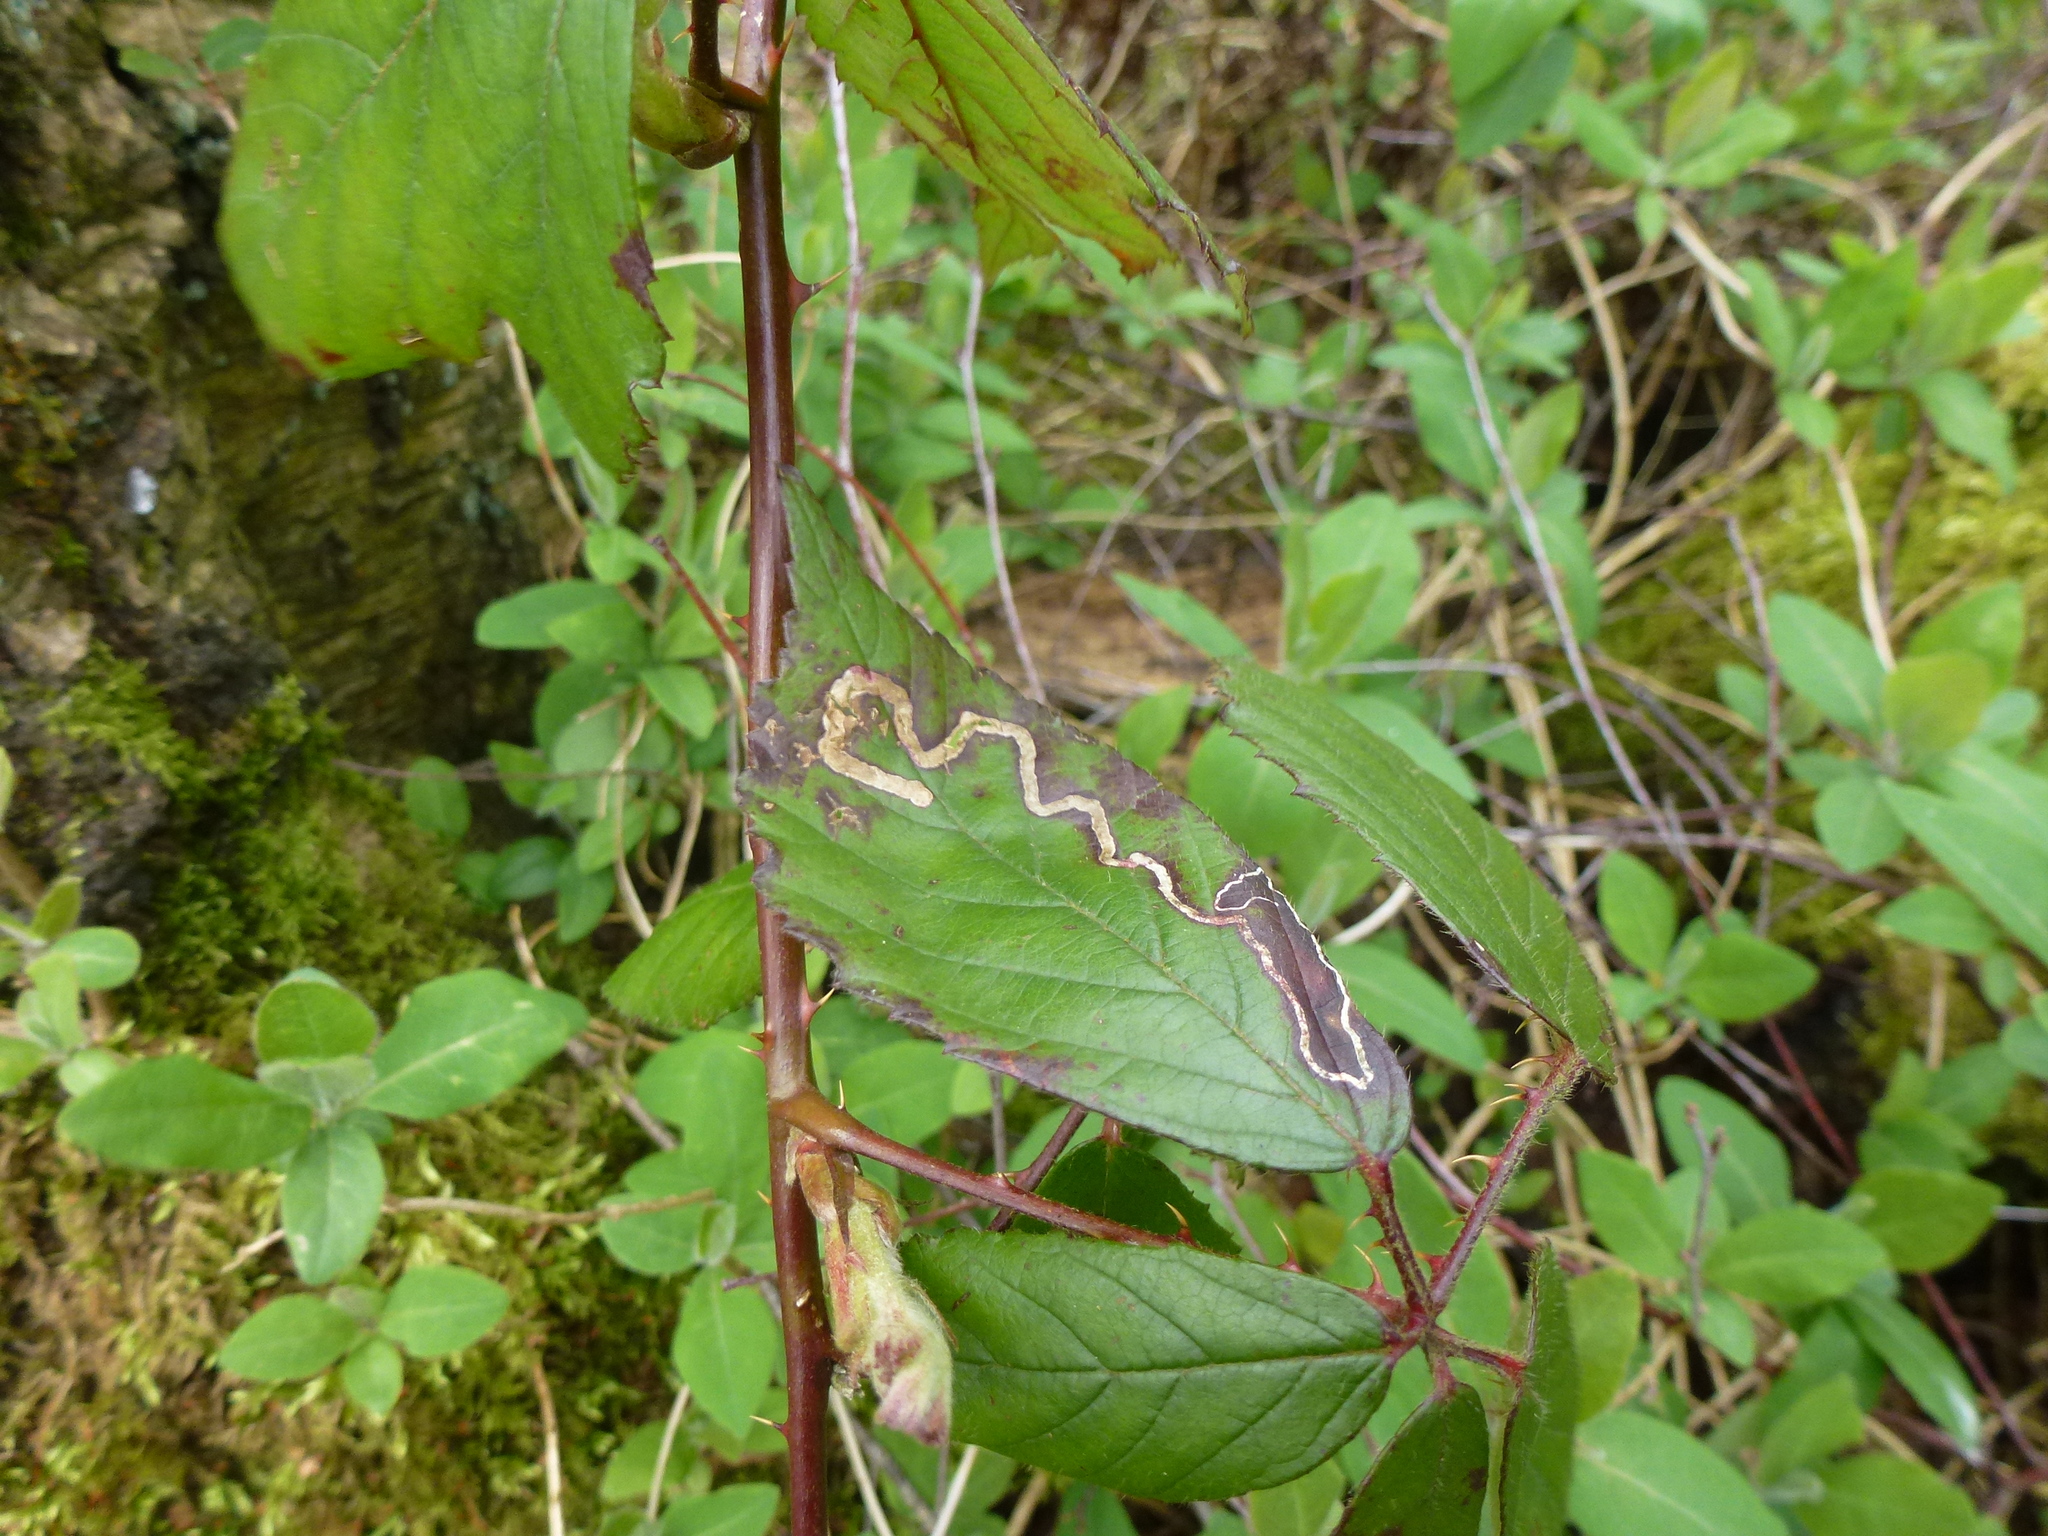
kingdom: Animalia
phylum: Arthropoda
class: Insecta
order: Lepidoptera
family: Nepticulidae
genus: Stigmella
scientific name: Stigmella aurella
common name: Golden pigmy
